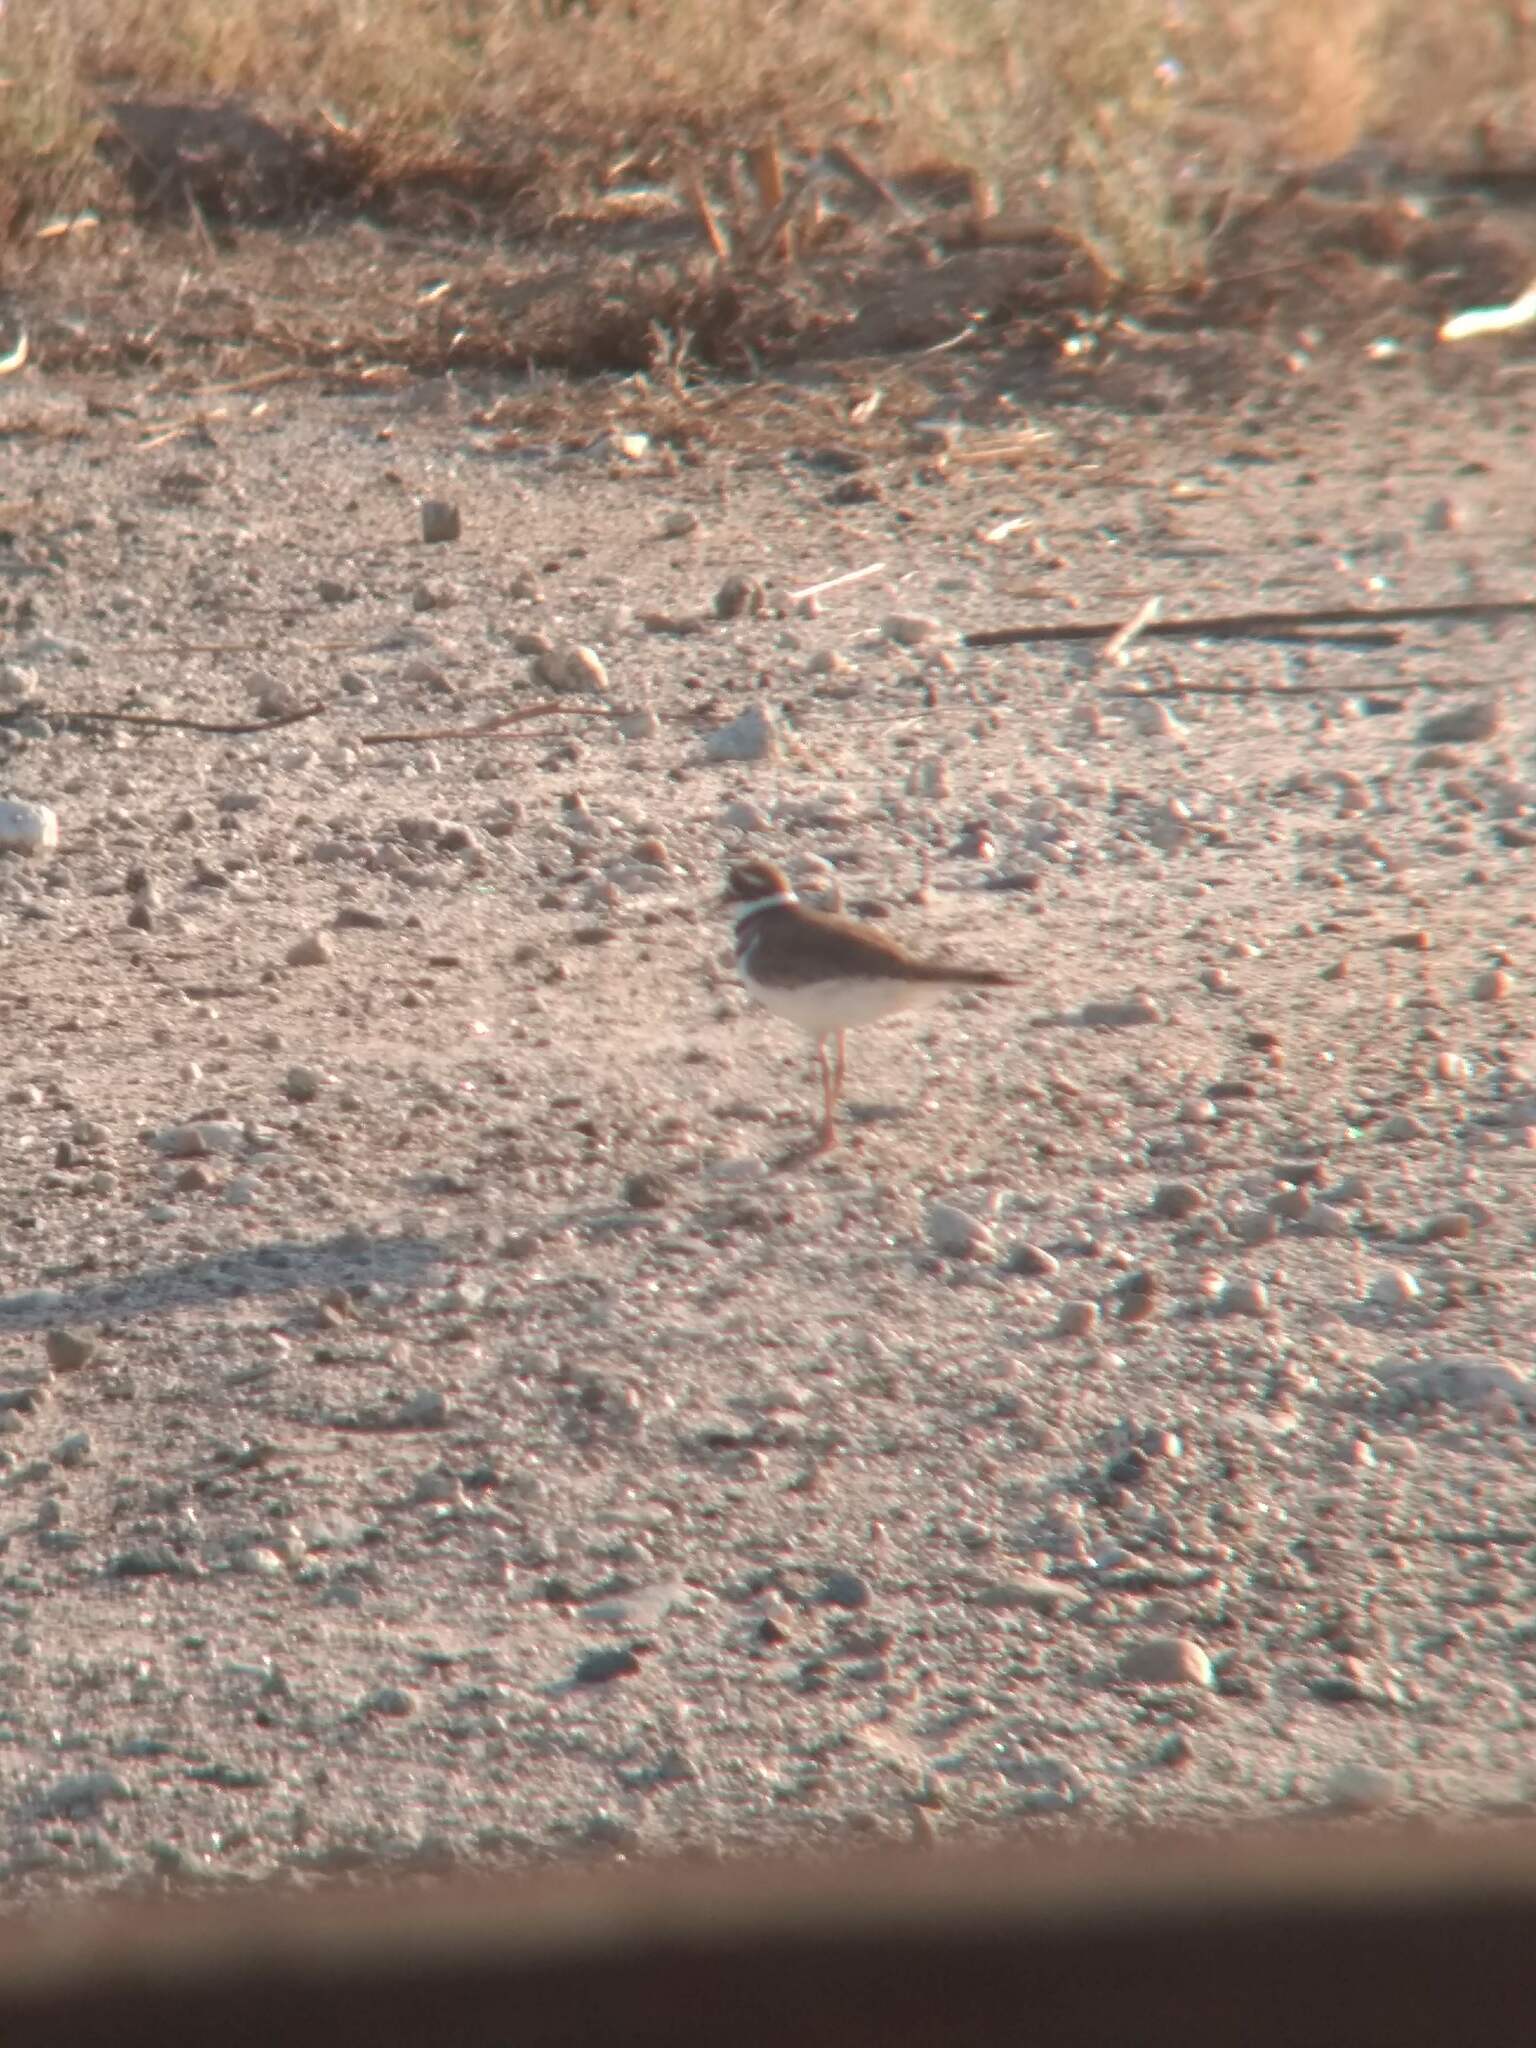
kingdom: Animalia
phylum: Chordata
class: Aves
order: Charadriiformes
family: Charadriidae
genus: Charadrius
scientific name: Charadrius vociferus
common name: Killdeer
